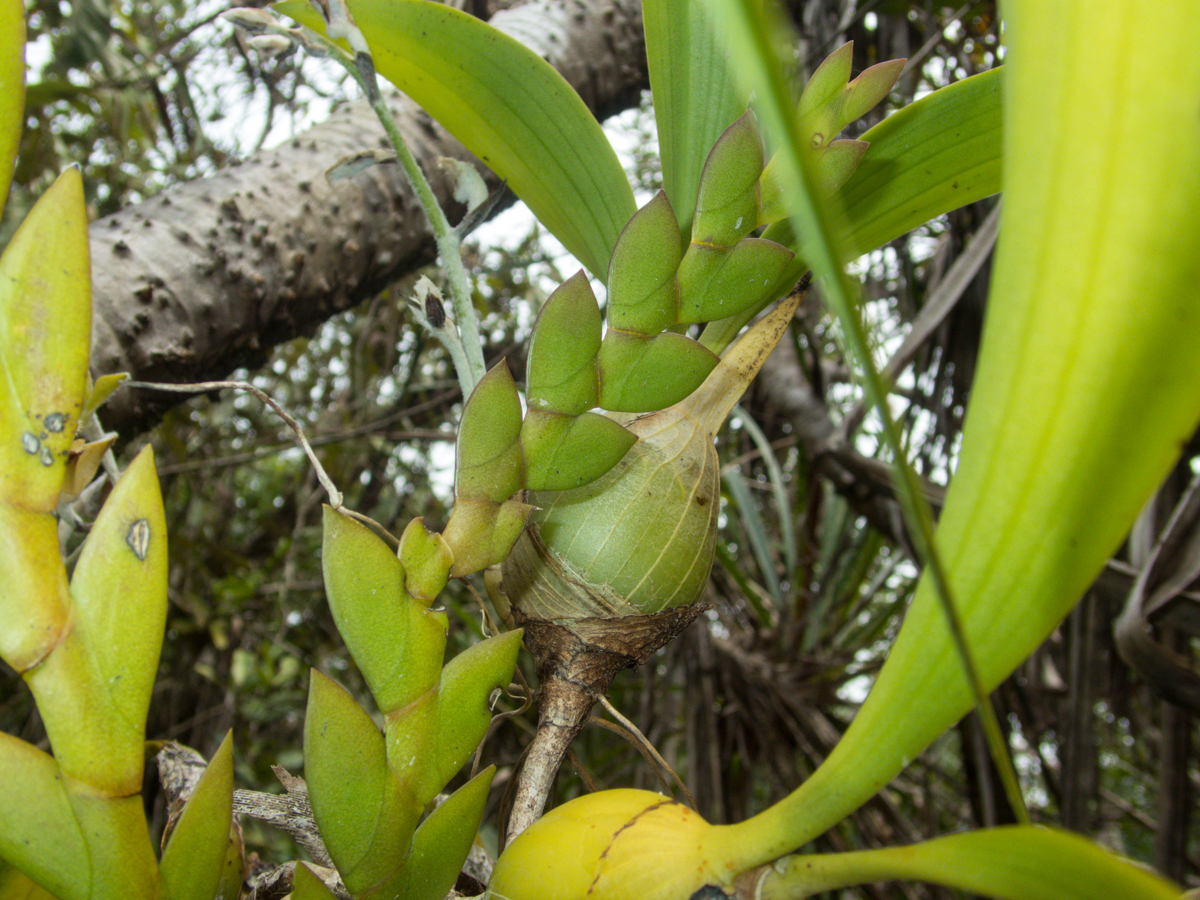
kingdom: Plantae
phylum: Tracheophyta
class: Liliopsida
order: Asparagales
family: Orchidaceae
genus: Dendrolirium
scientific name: Dendrolirium lasiopetalum
